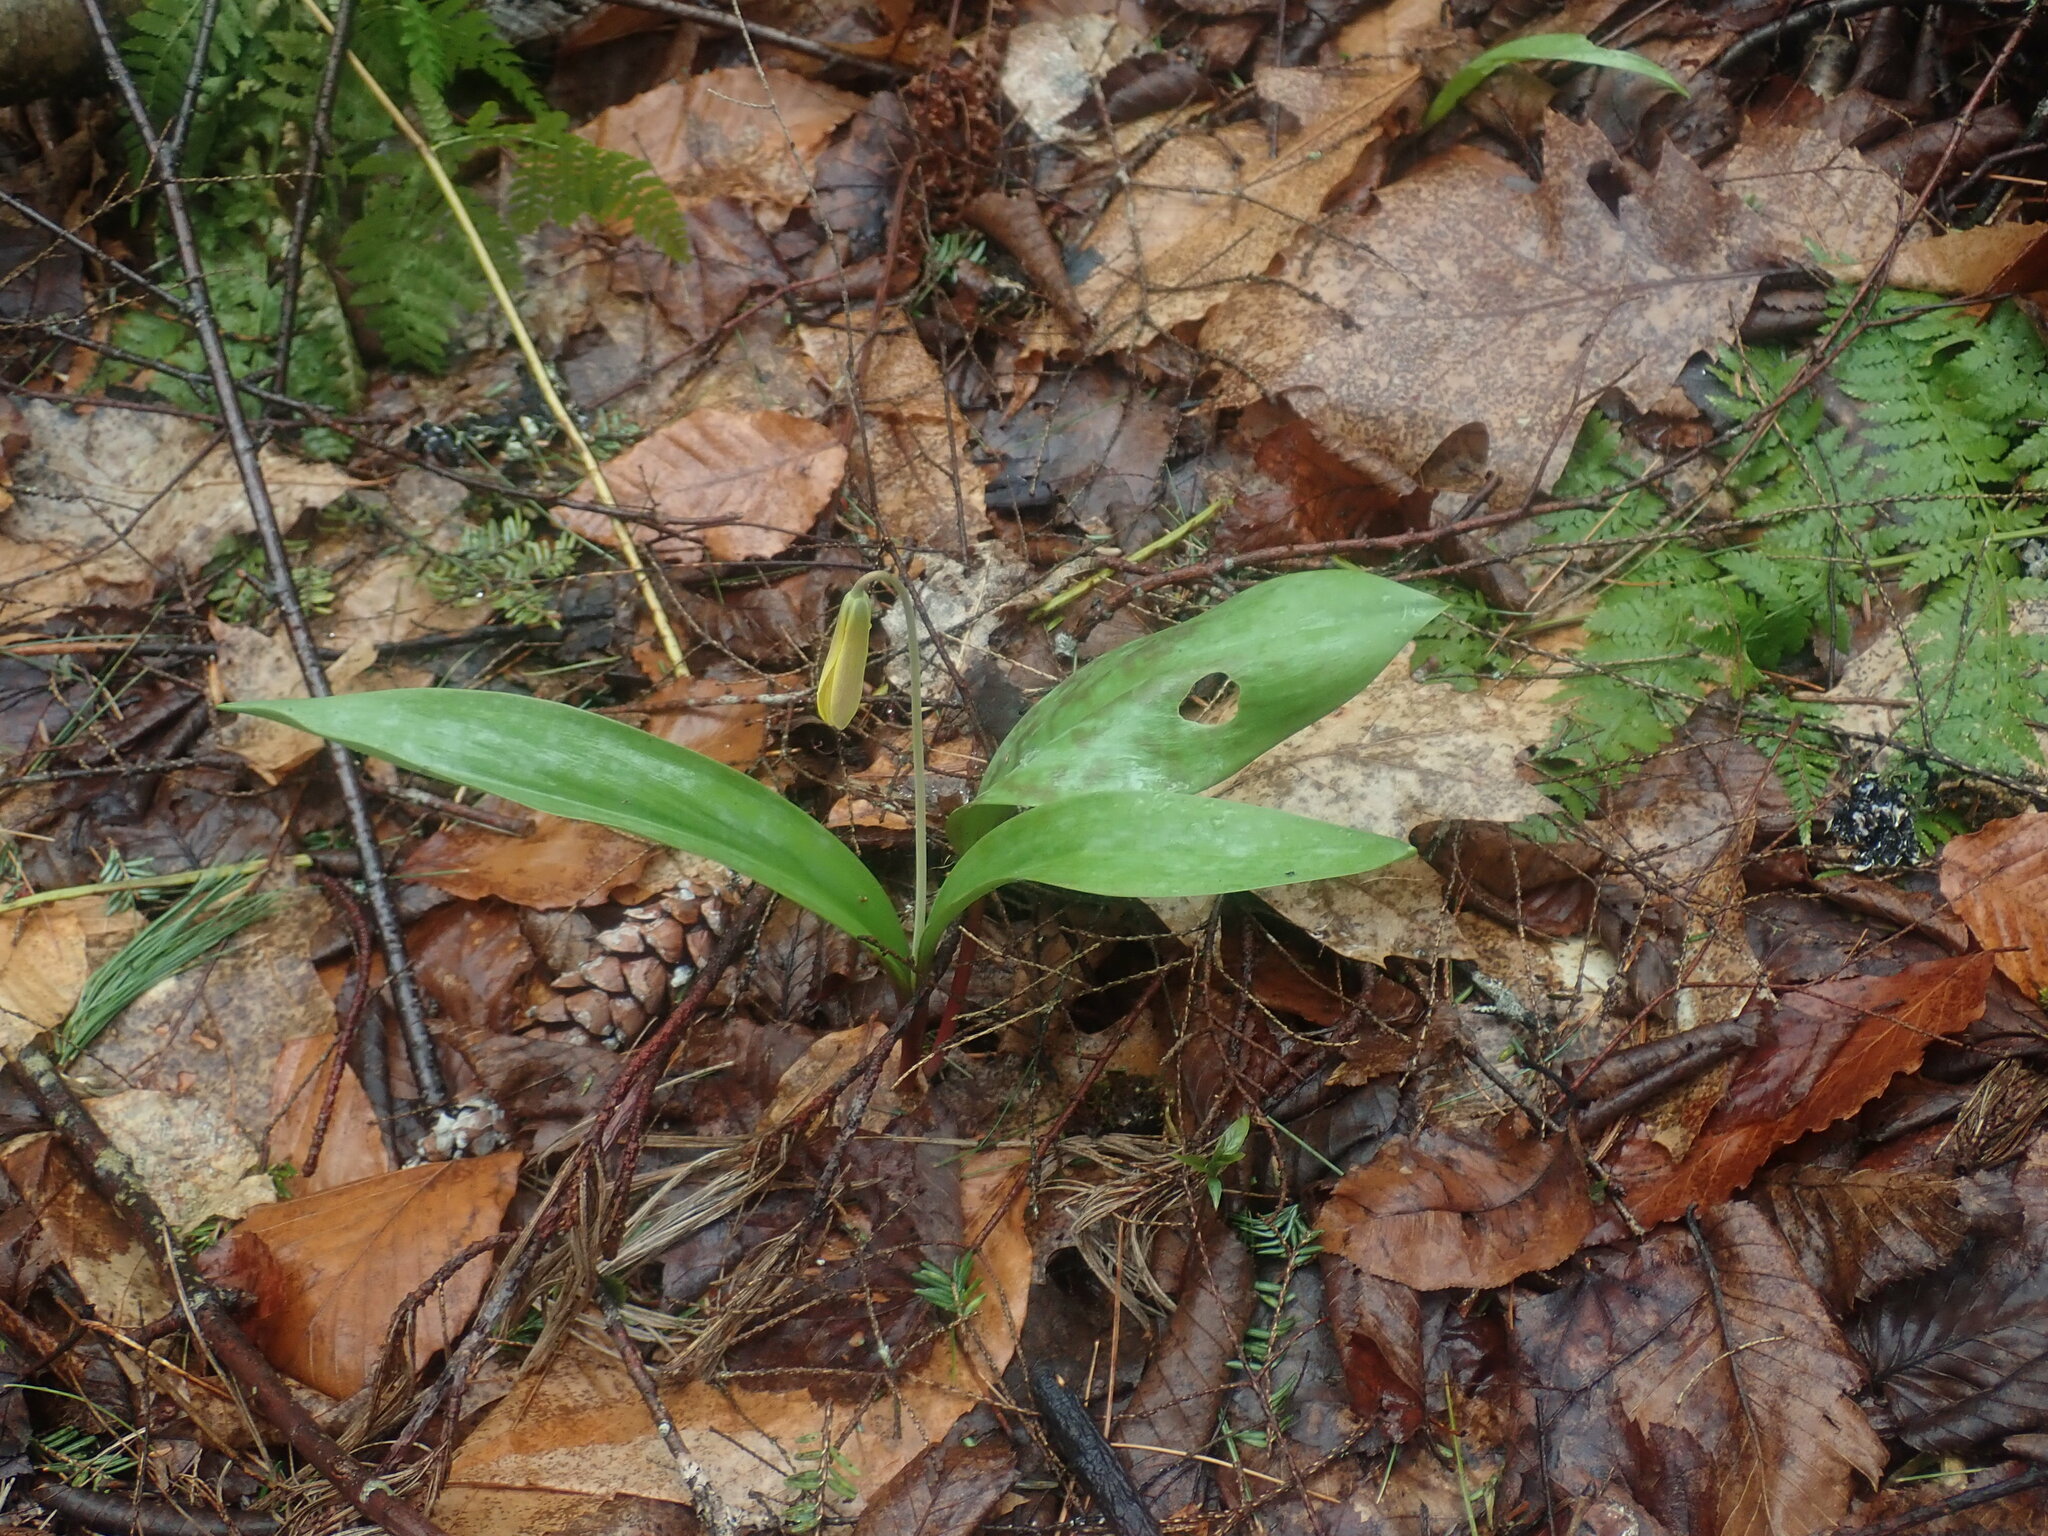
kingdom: Plantae
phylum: Tracheophyta
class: Liliopsida
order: Liliales
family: Liliaceae
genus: Erythronium
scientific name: Erythronium americanum
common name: Yellow adder's-tongue
